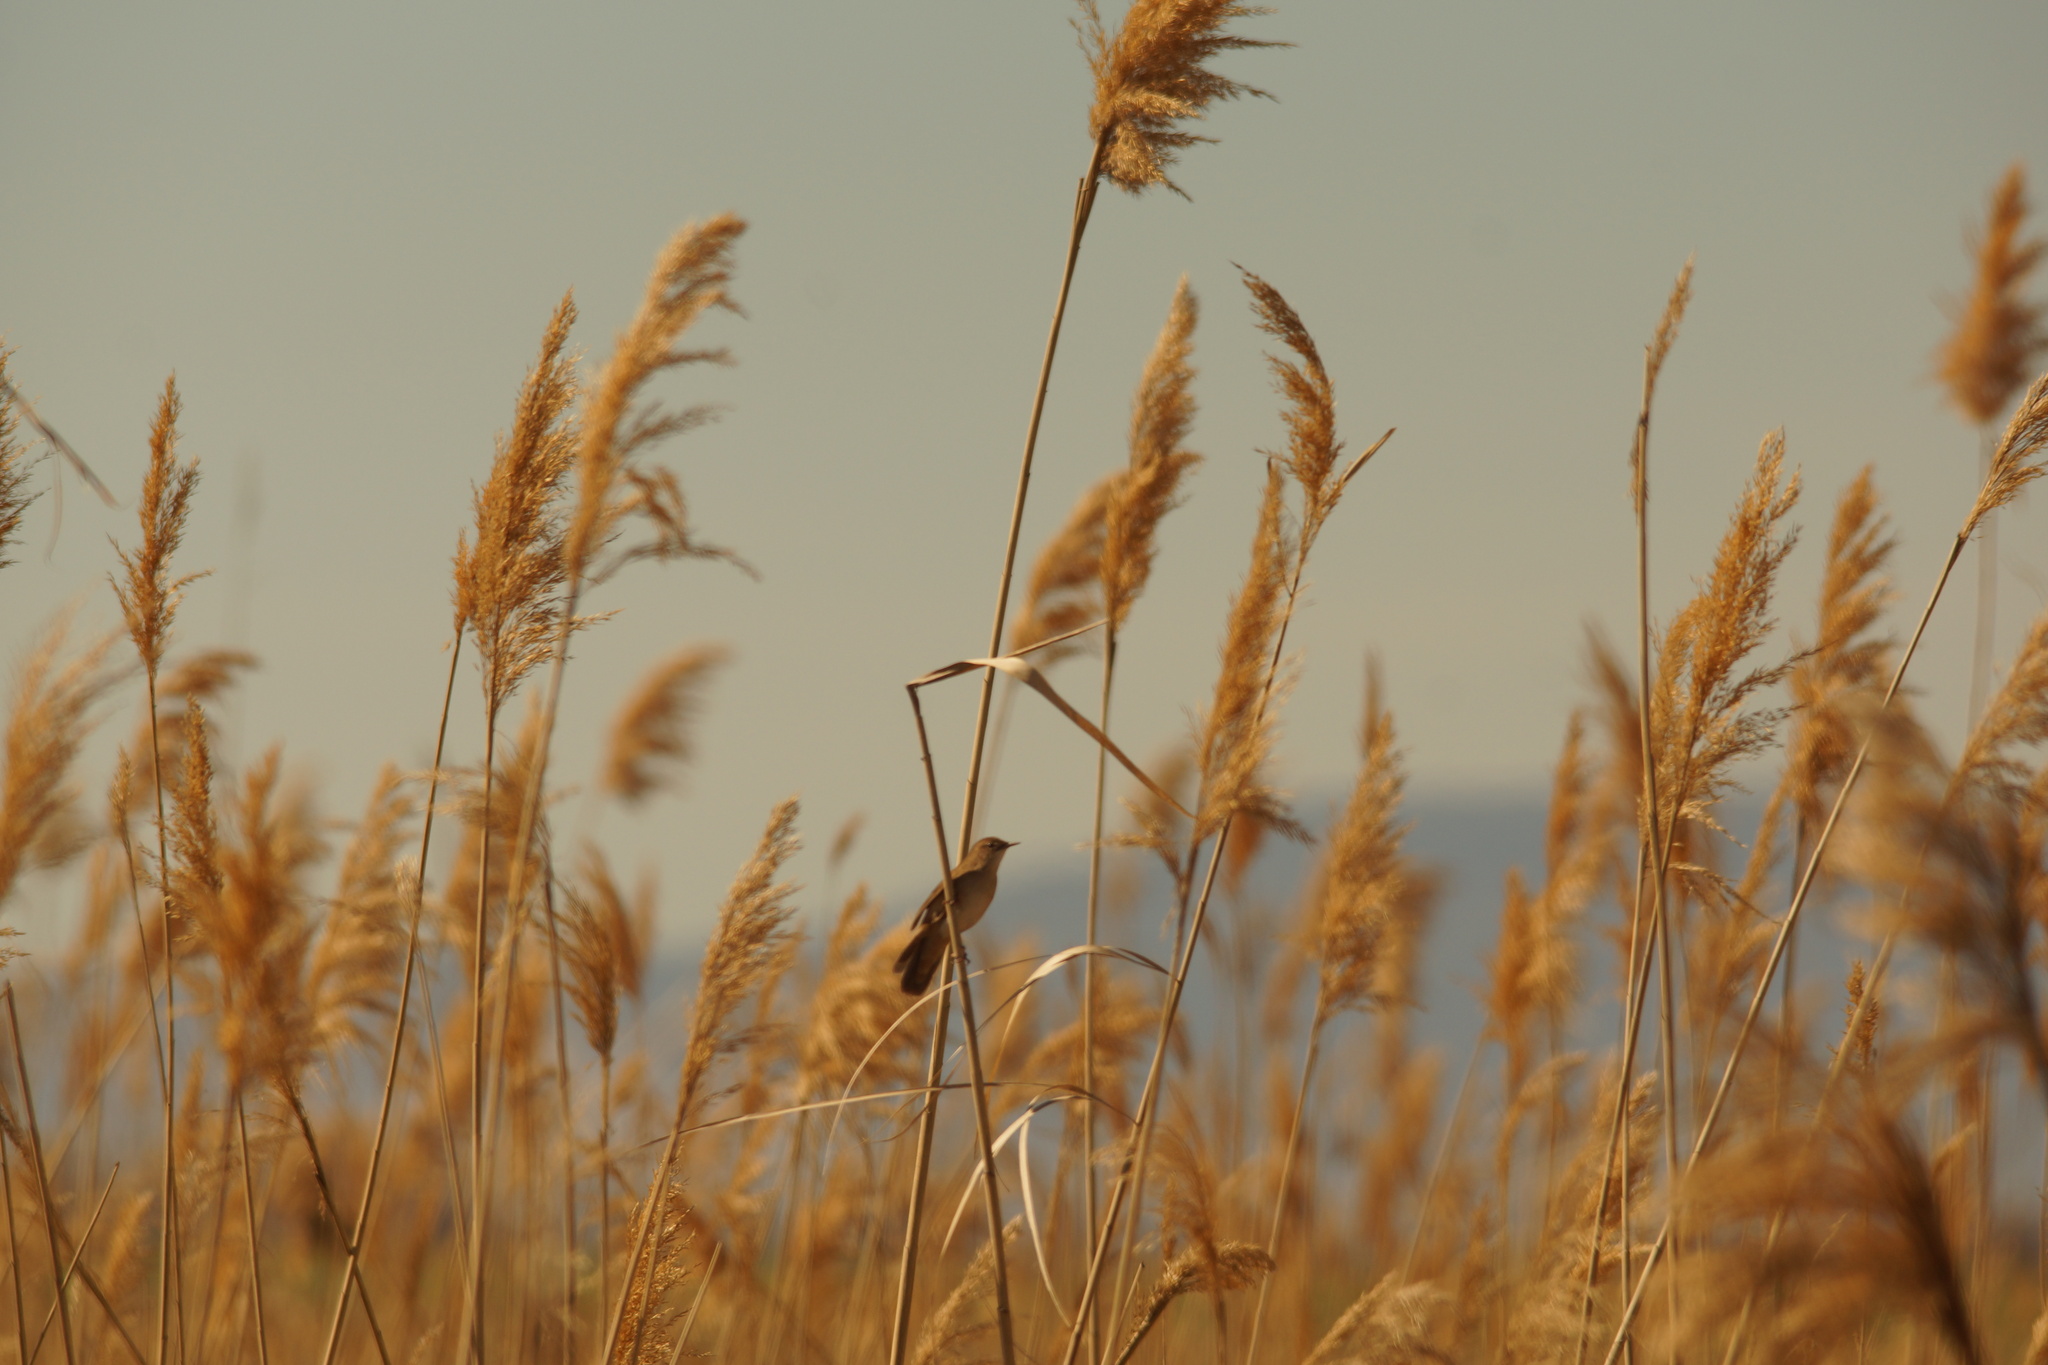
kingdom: Animalia
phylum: Chordata
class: Aves
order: Passeriformes
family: Locustellidae
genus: Locustella
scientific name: Locustella luscinioides
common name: Savi's warbler
